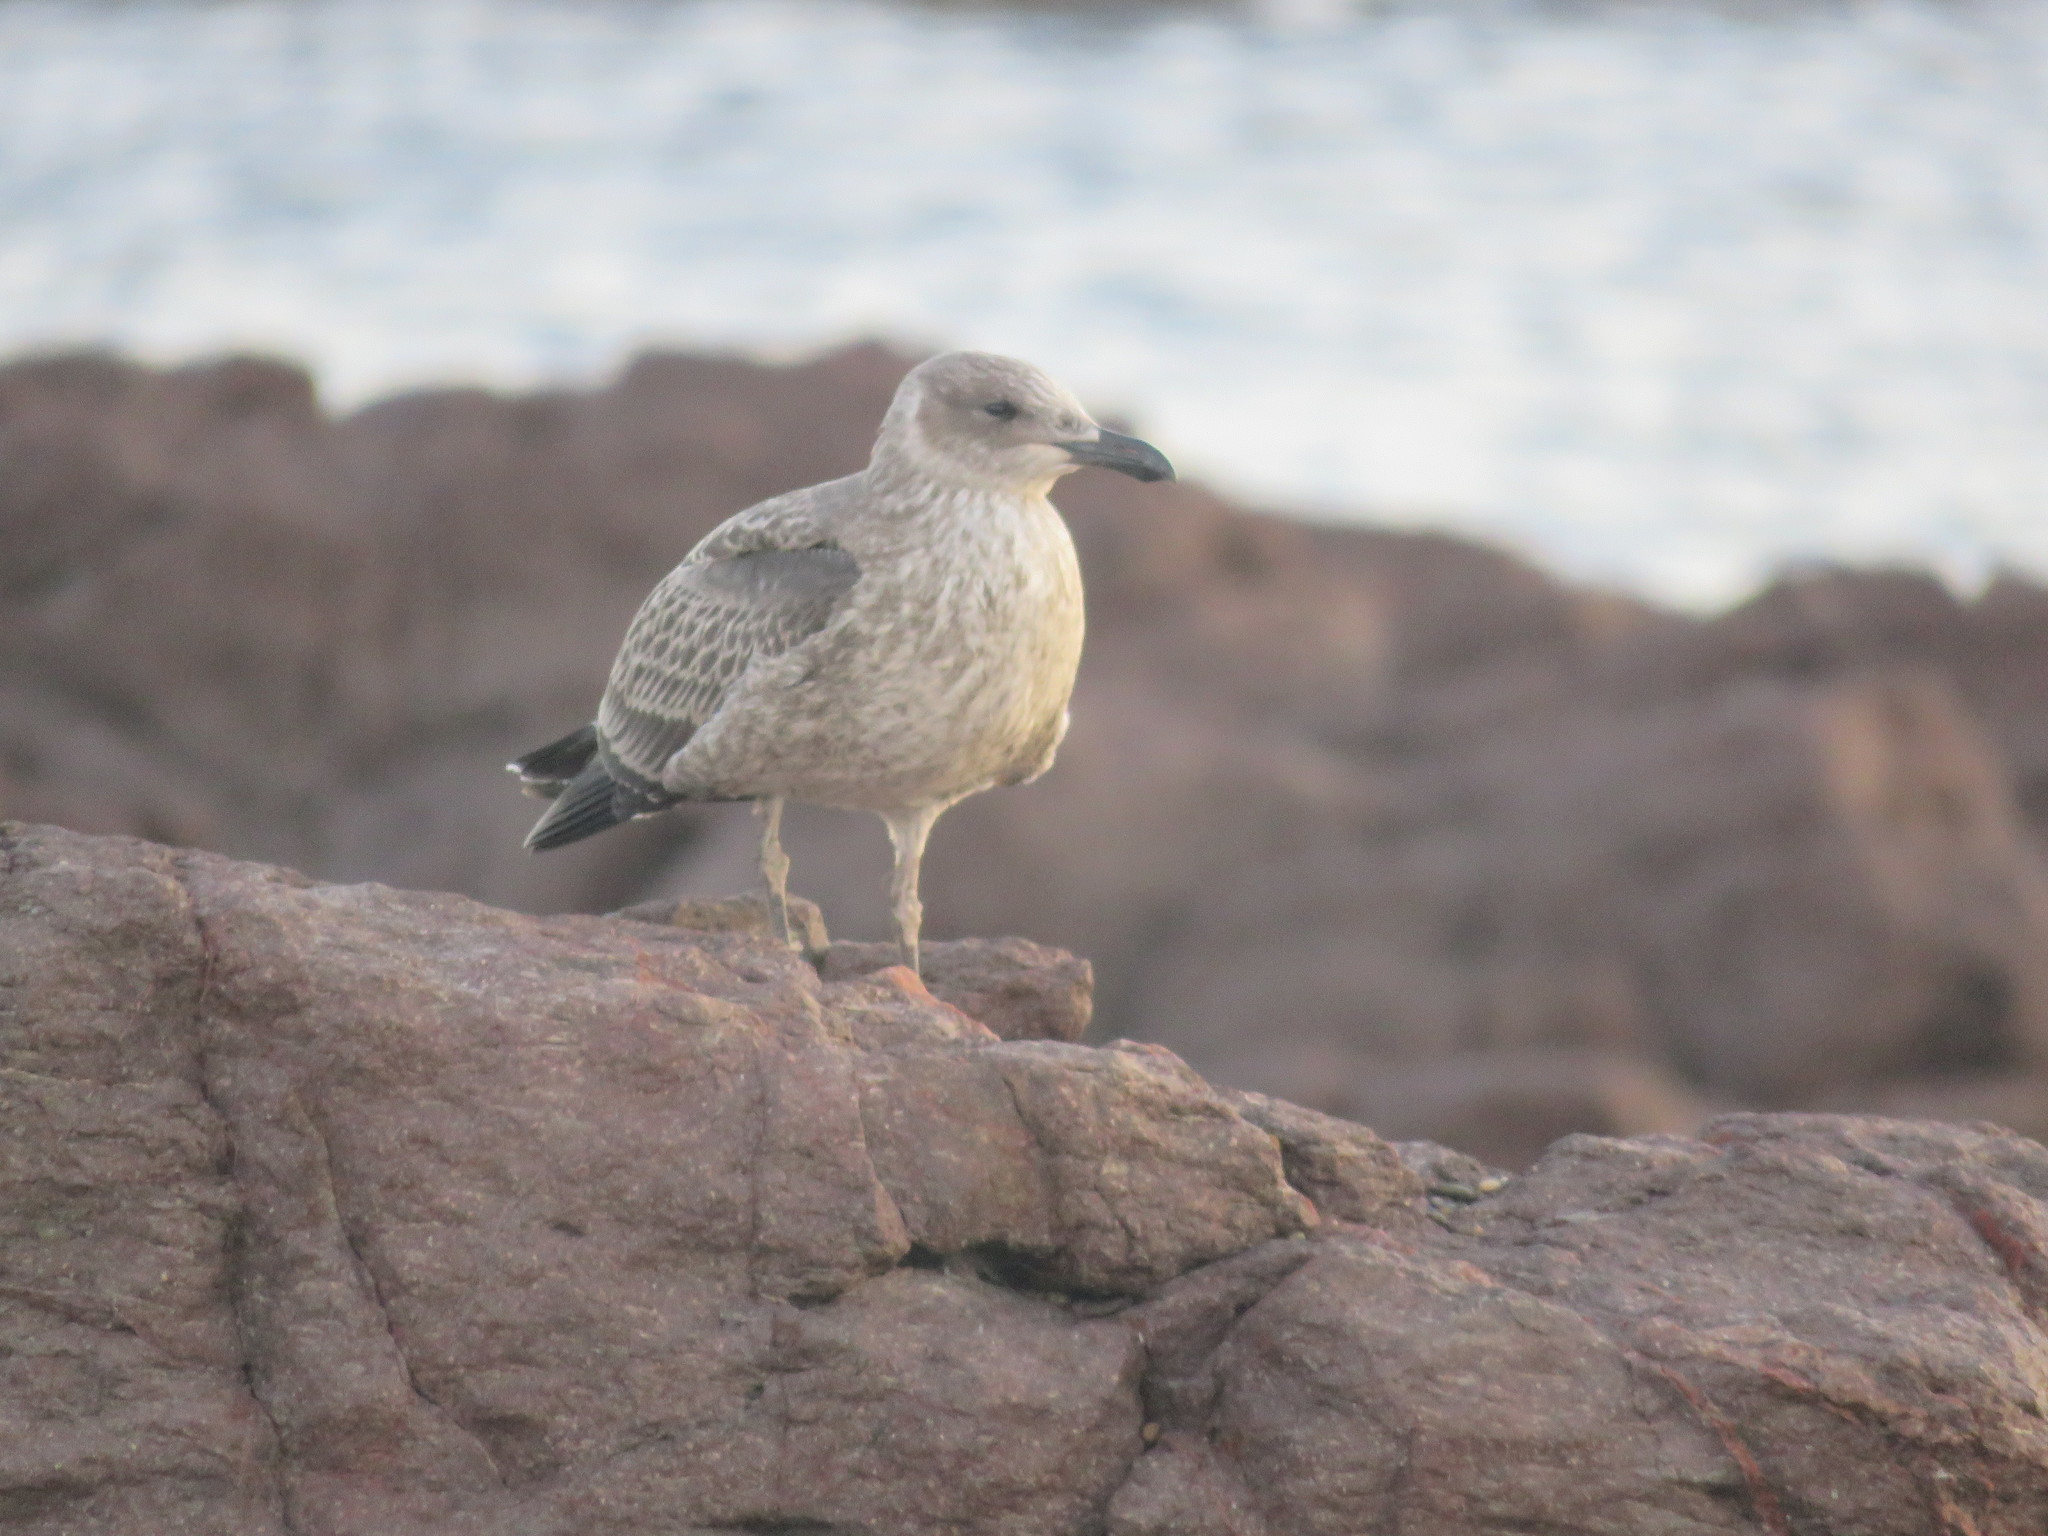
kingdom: Animalia
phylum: Chordata
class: Aves
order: Charadriiformes
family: Laridae
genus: Larus
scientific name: Larus dominicanus
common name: Kelp gull
